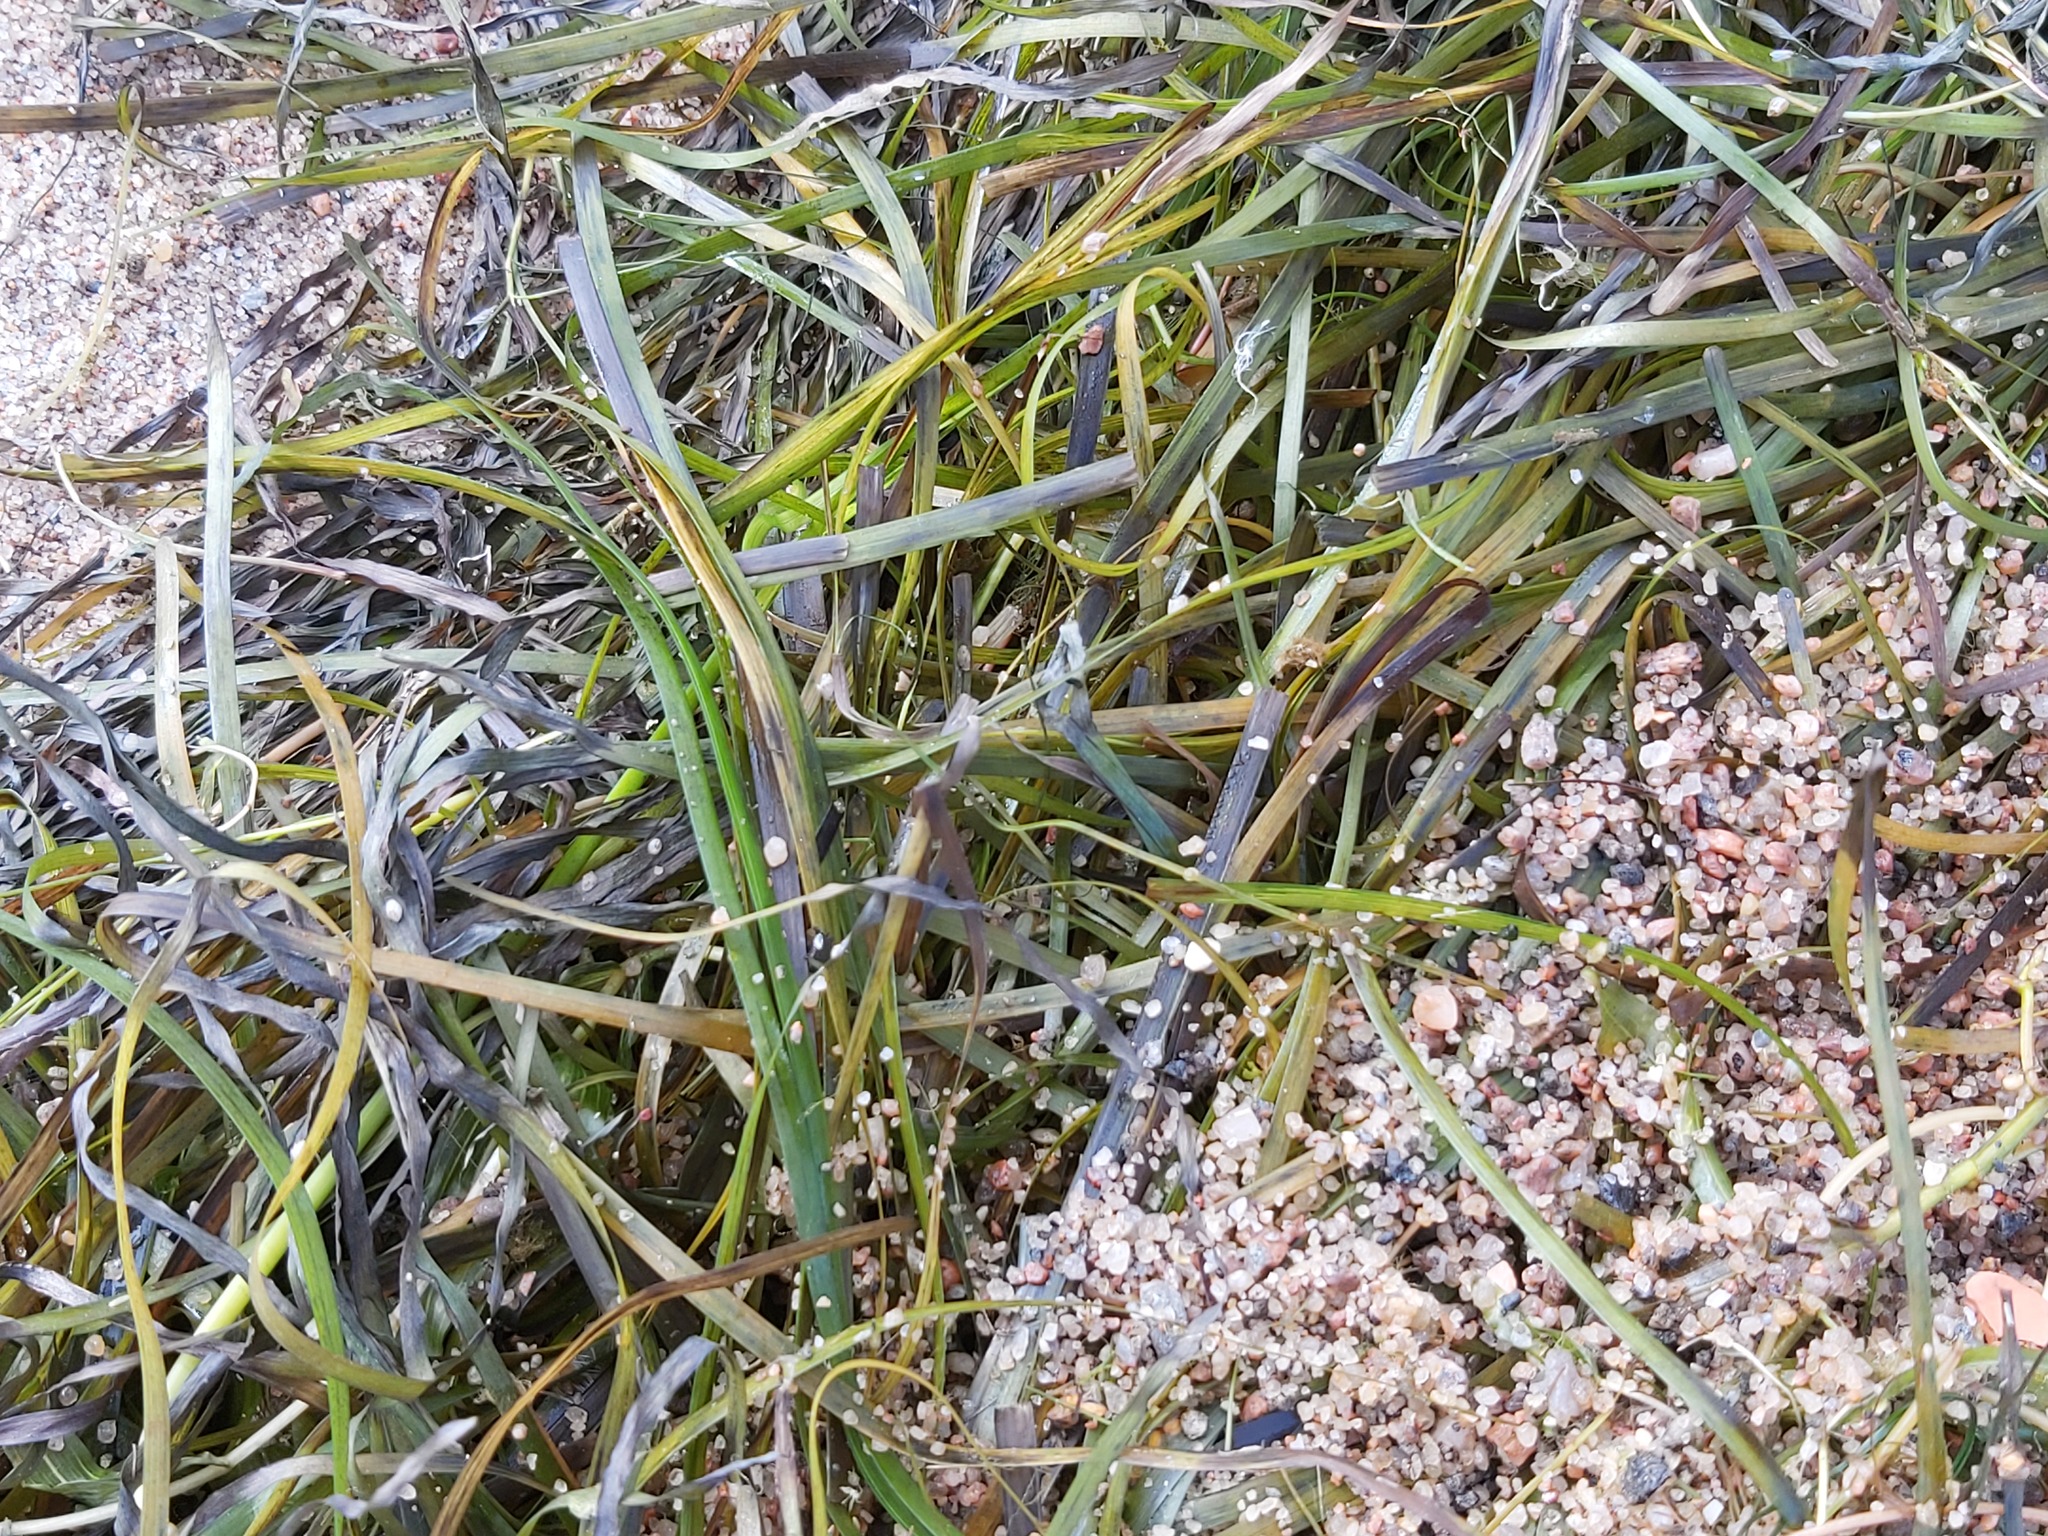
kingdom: Plantae
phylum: Tracheophyta
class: Liliopsida
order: Alismatales
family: Zosteraceae
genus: Zostera
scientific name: Zostera marina
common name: Eelgrass
